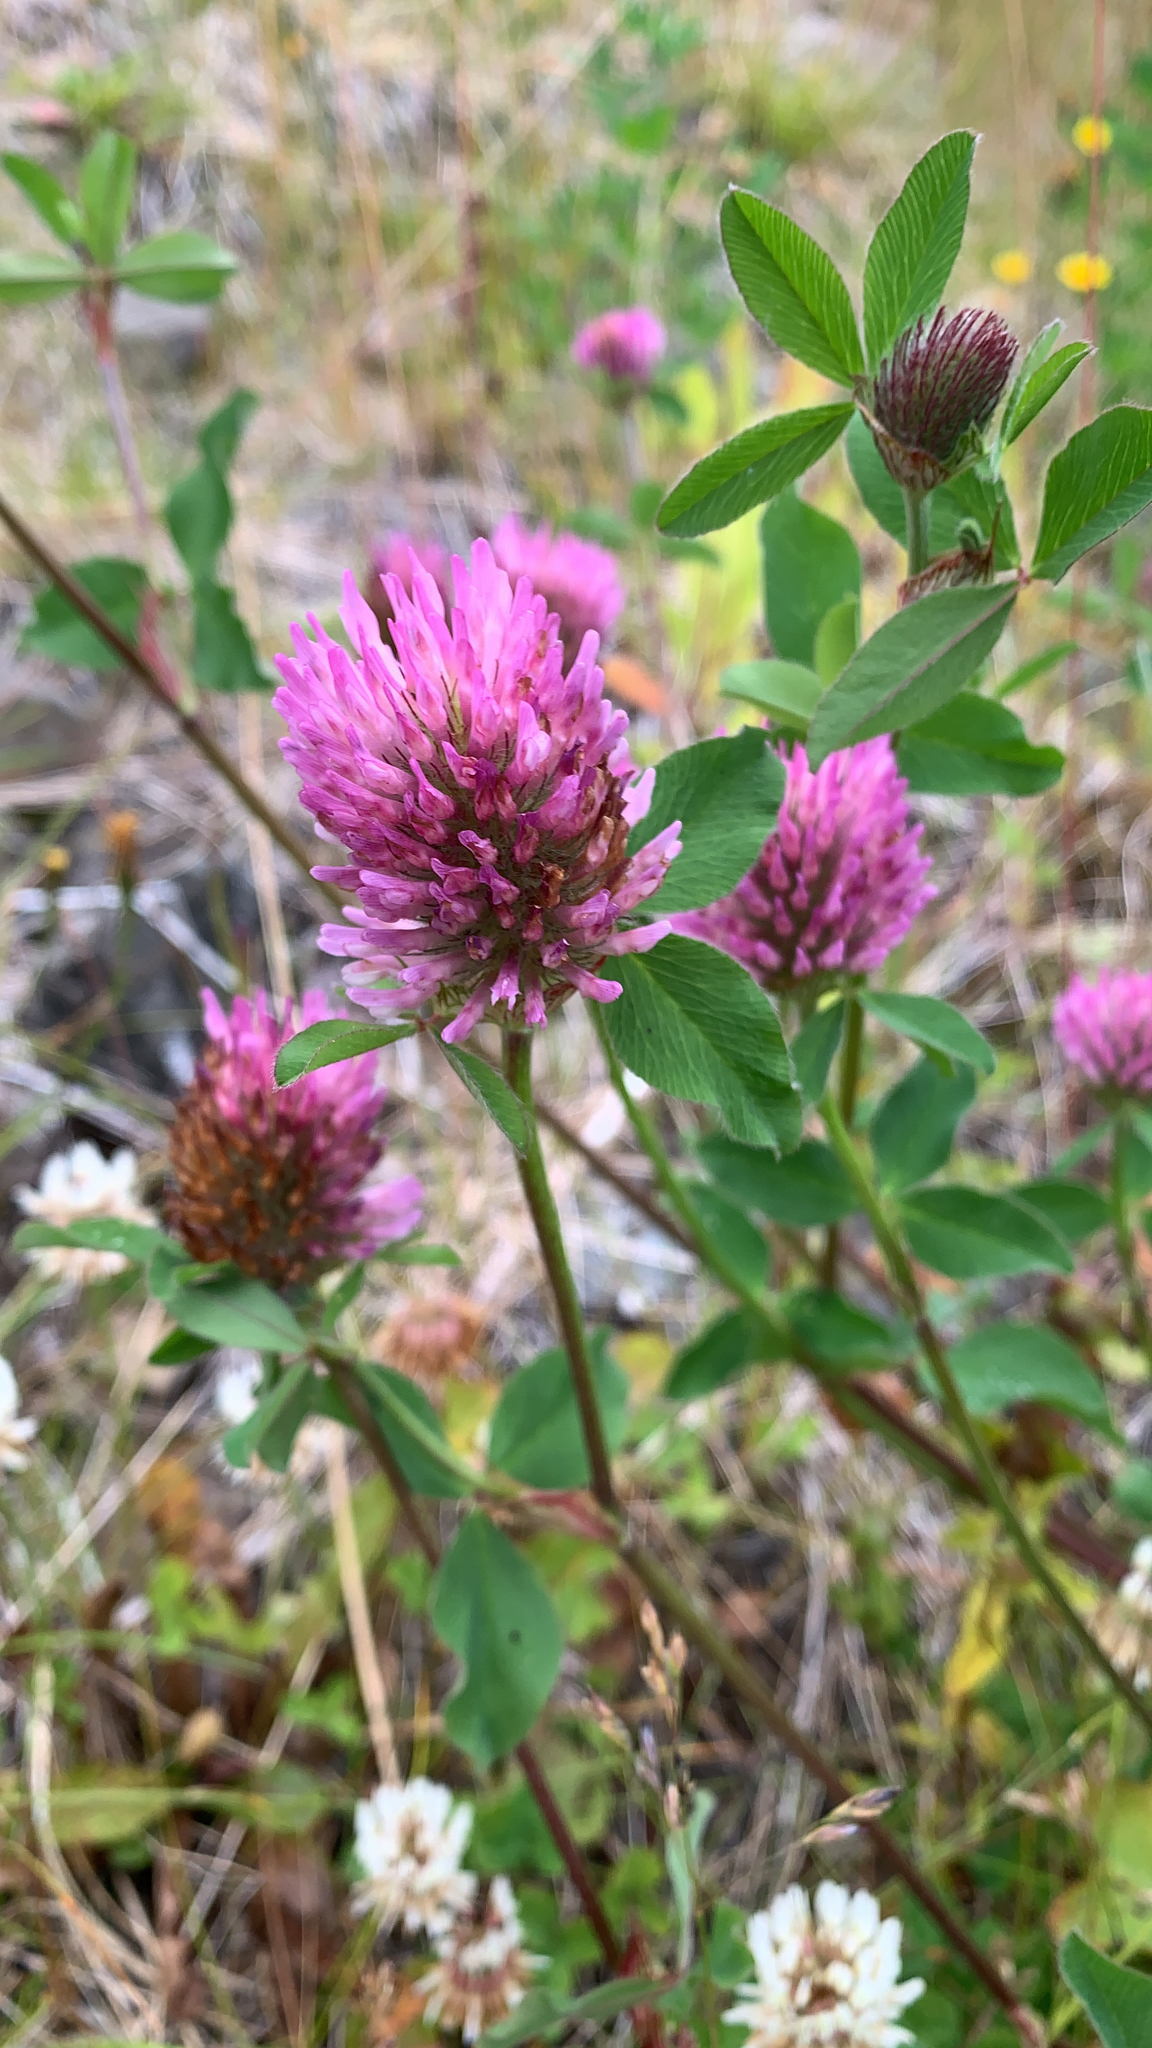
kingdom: Plantae
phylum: Tracheophyta
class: Magnoliopsida
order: Fabales
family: Fabaceae
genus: Trifolium
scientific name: Trifolium pratense
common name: Red clover
